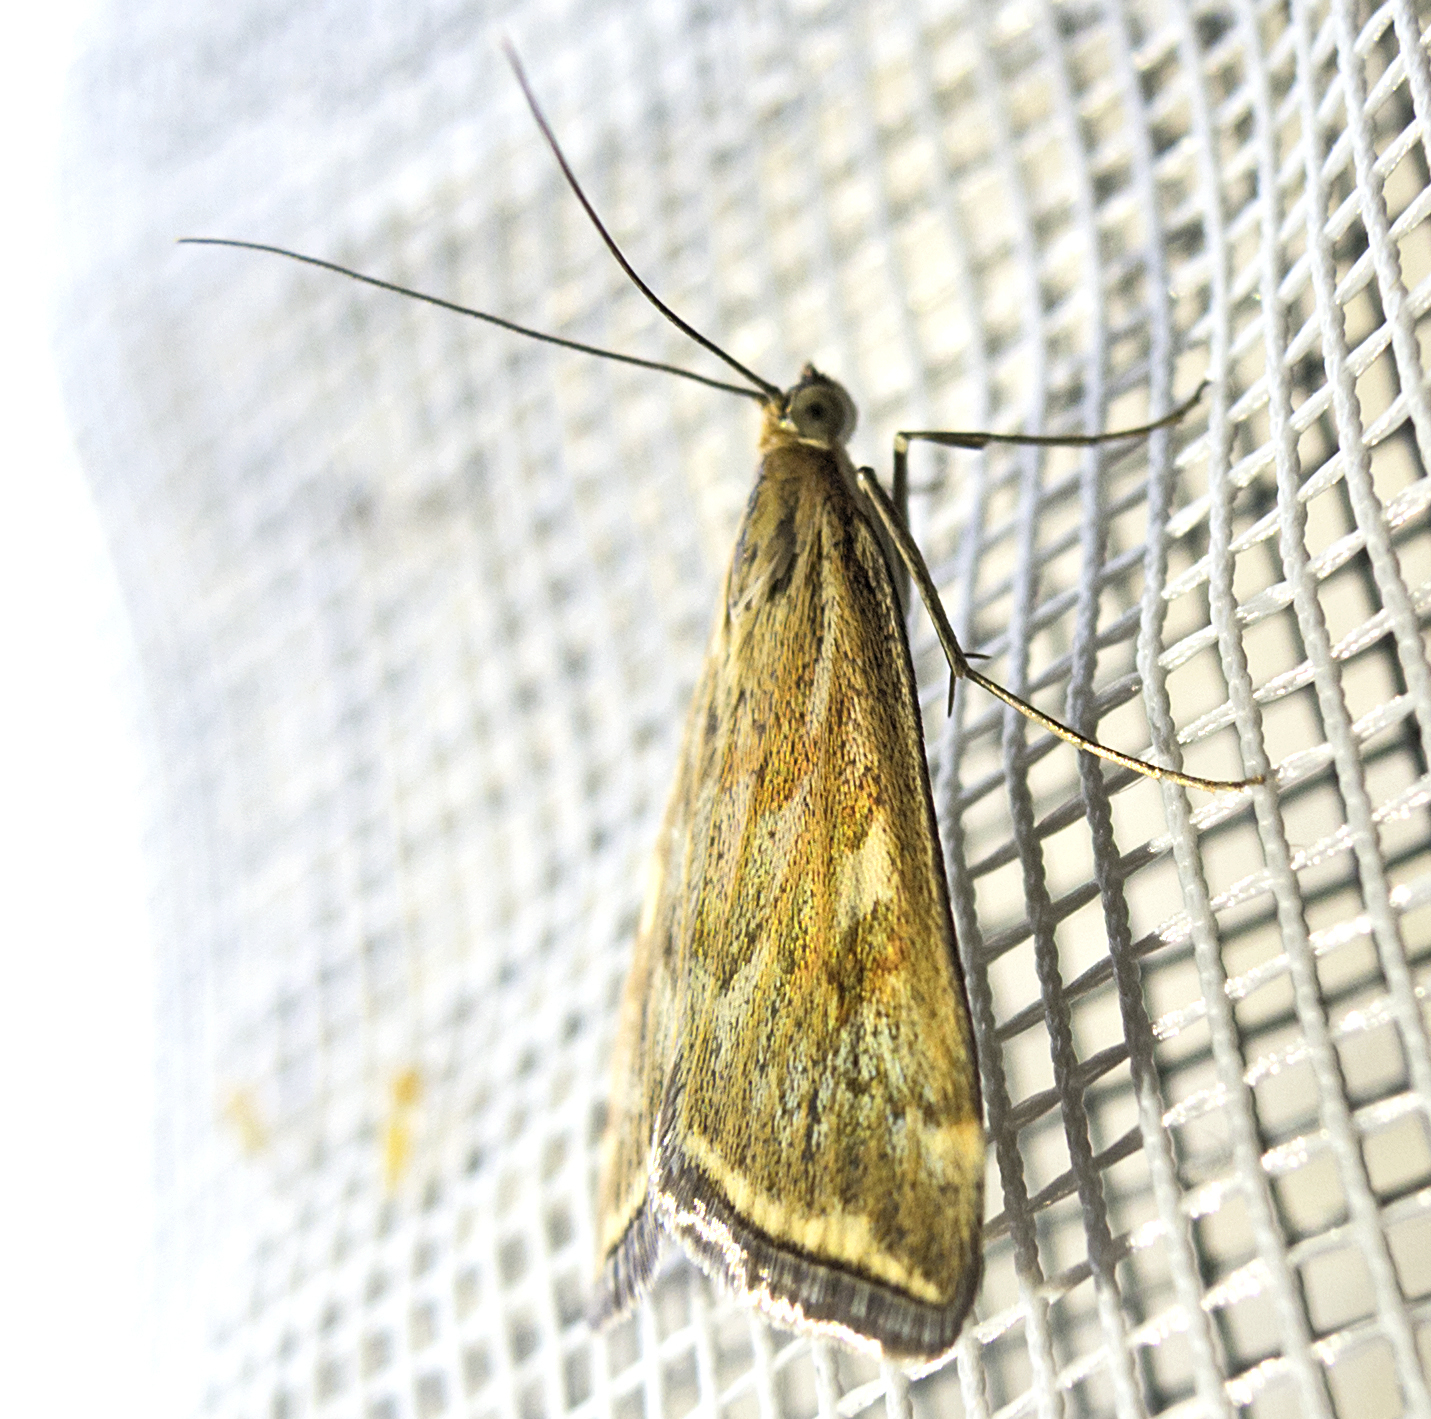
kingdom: Animalia
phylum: Arthropoda
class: Insecta
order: Lepidoptera
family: Crambidae
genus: Loxostege
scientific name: Loxostege sticticalis
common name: Crambid moth
